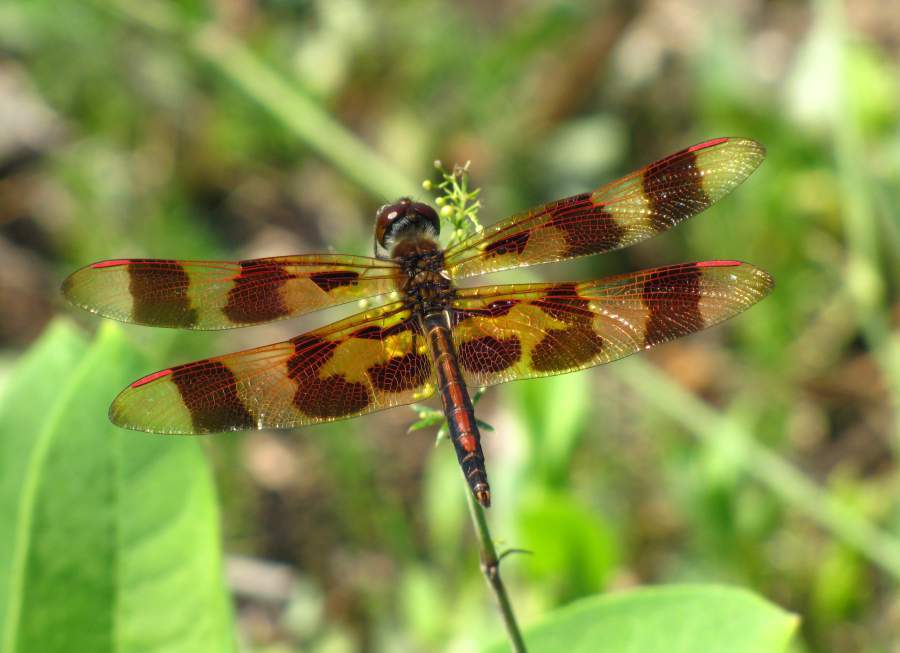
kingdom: Animalia
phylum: Arthropoda
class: Insecta
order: Odonata
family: Libellulidae
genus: Celithemis
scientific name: Celithemis eponina
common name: Halloween pennant
